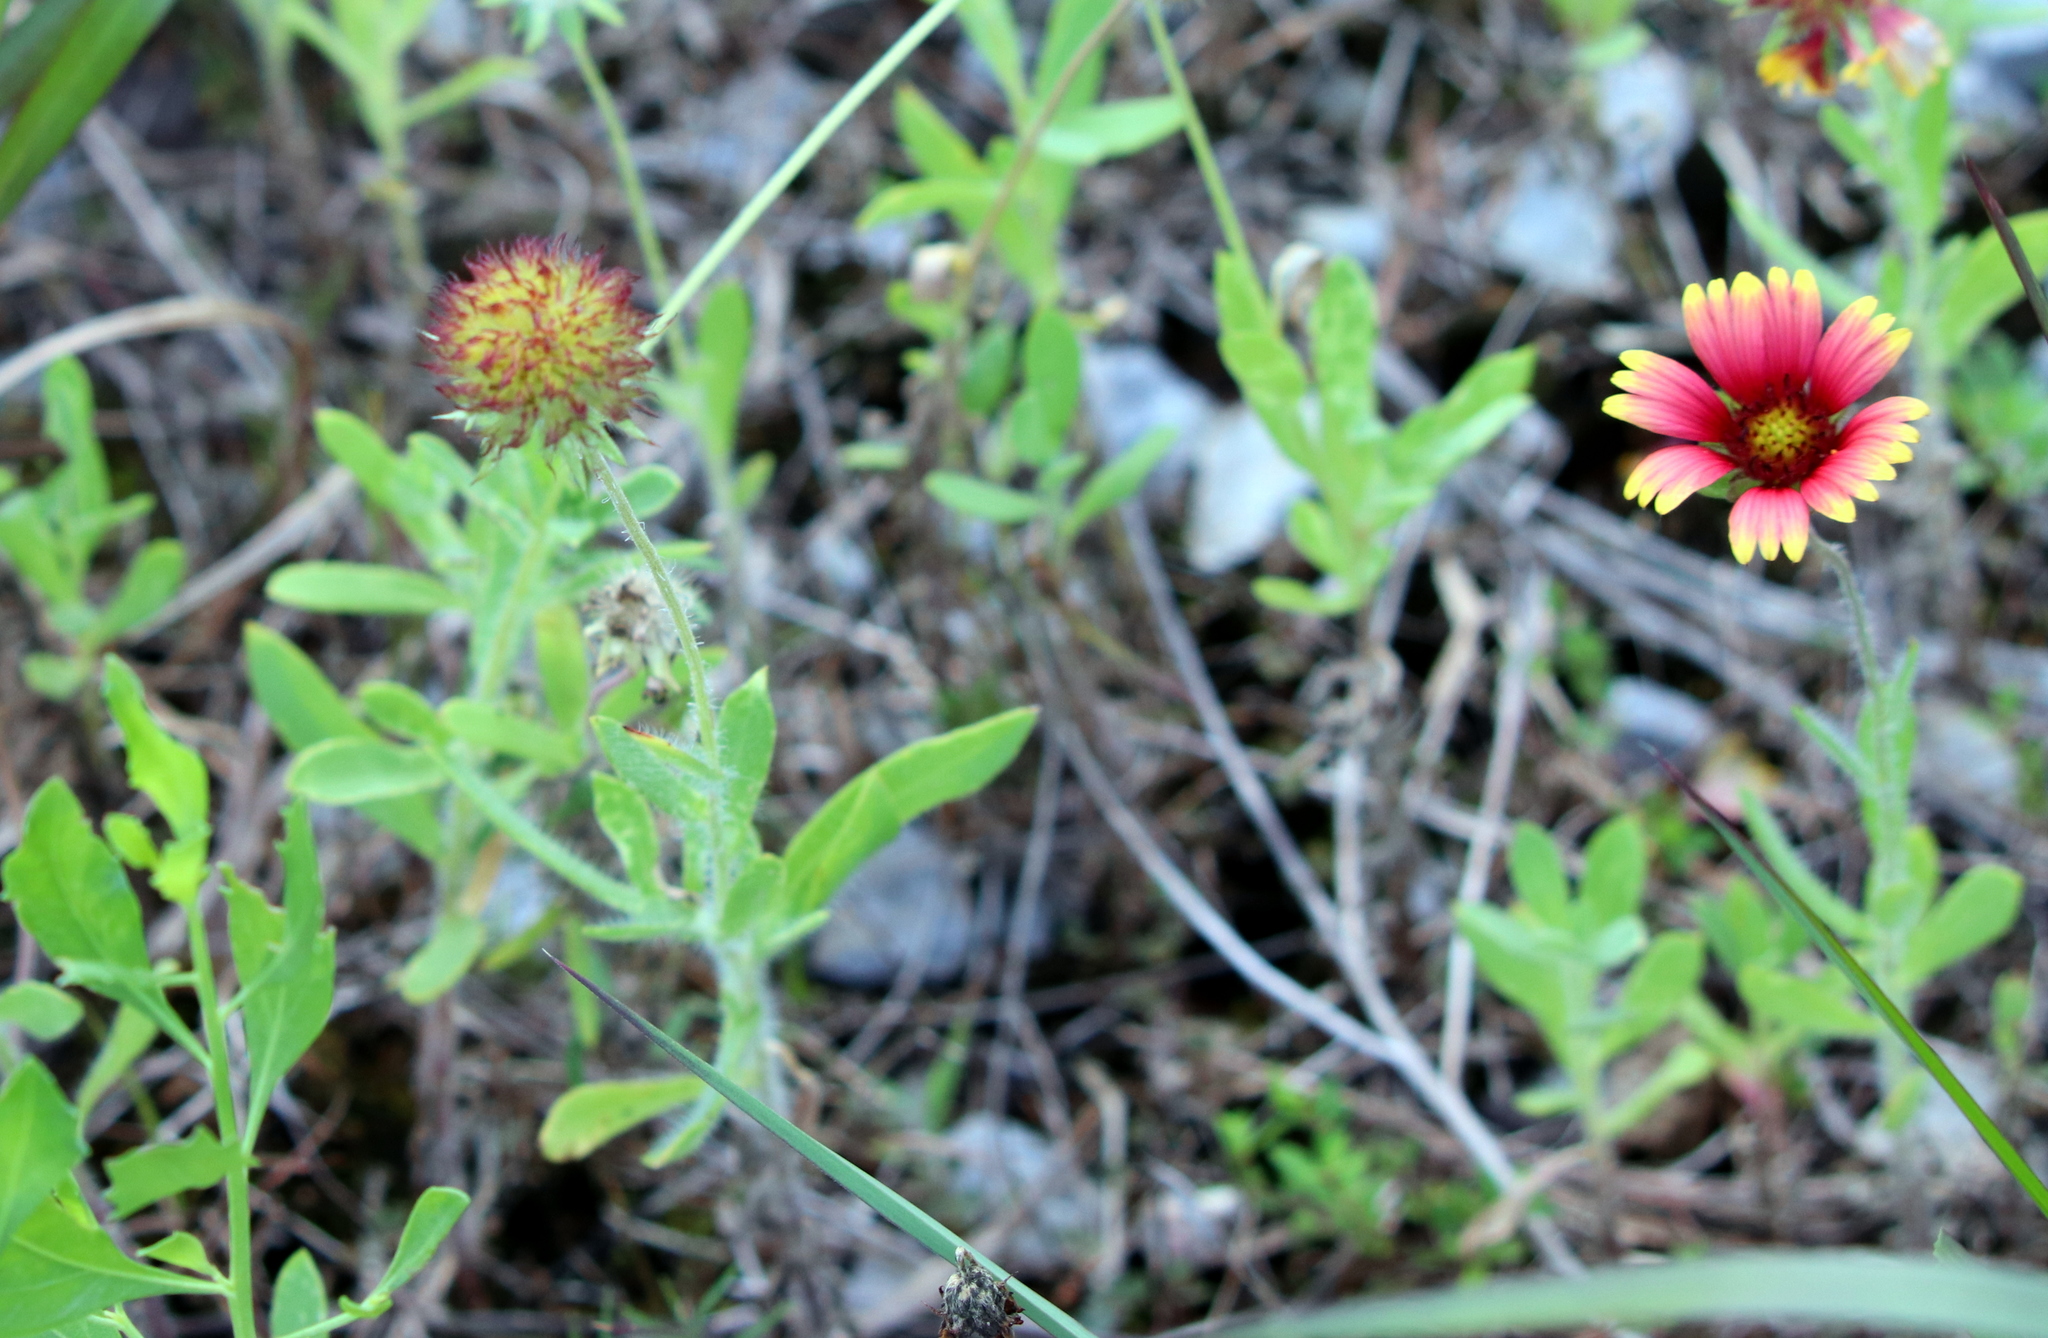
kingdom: Plantae
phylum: Tracheophyta
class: Magnoliopsida
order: Asterales
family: Asteraceae
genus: Gaillardia
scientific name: Gaillardia pulchella
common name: Firewheel
